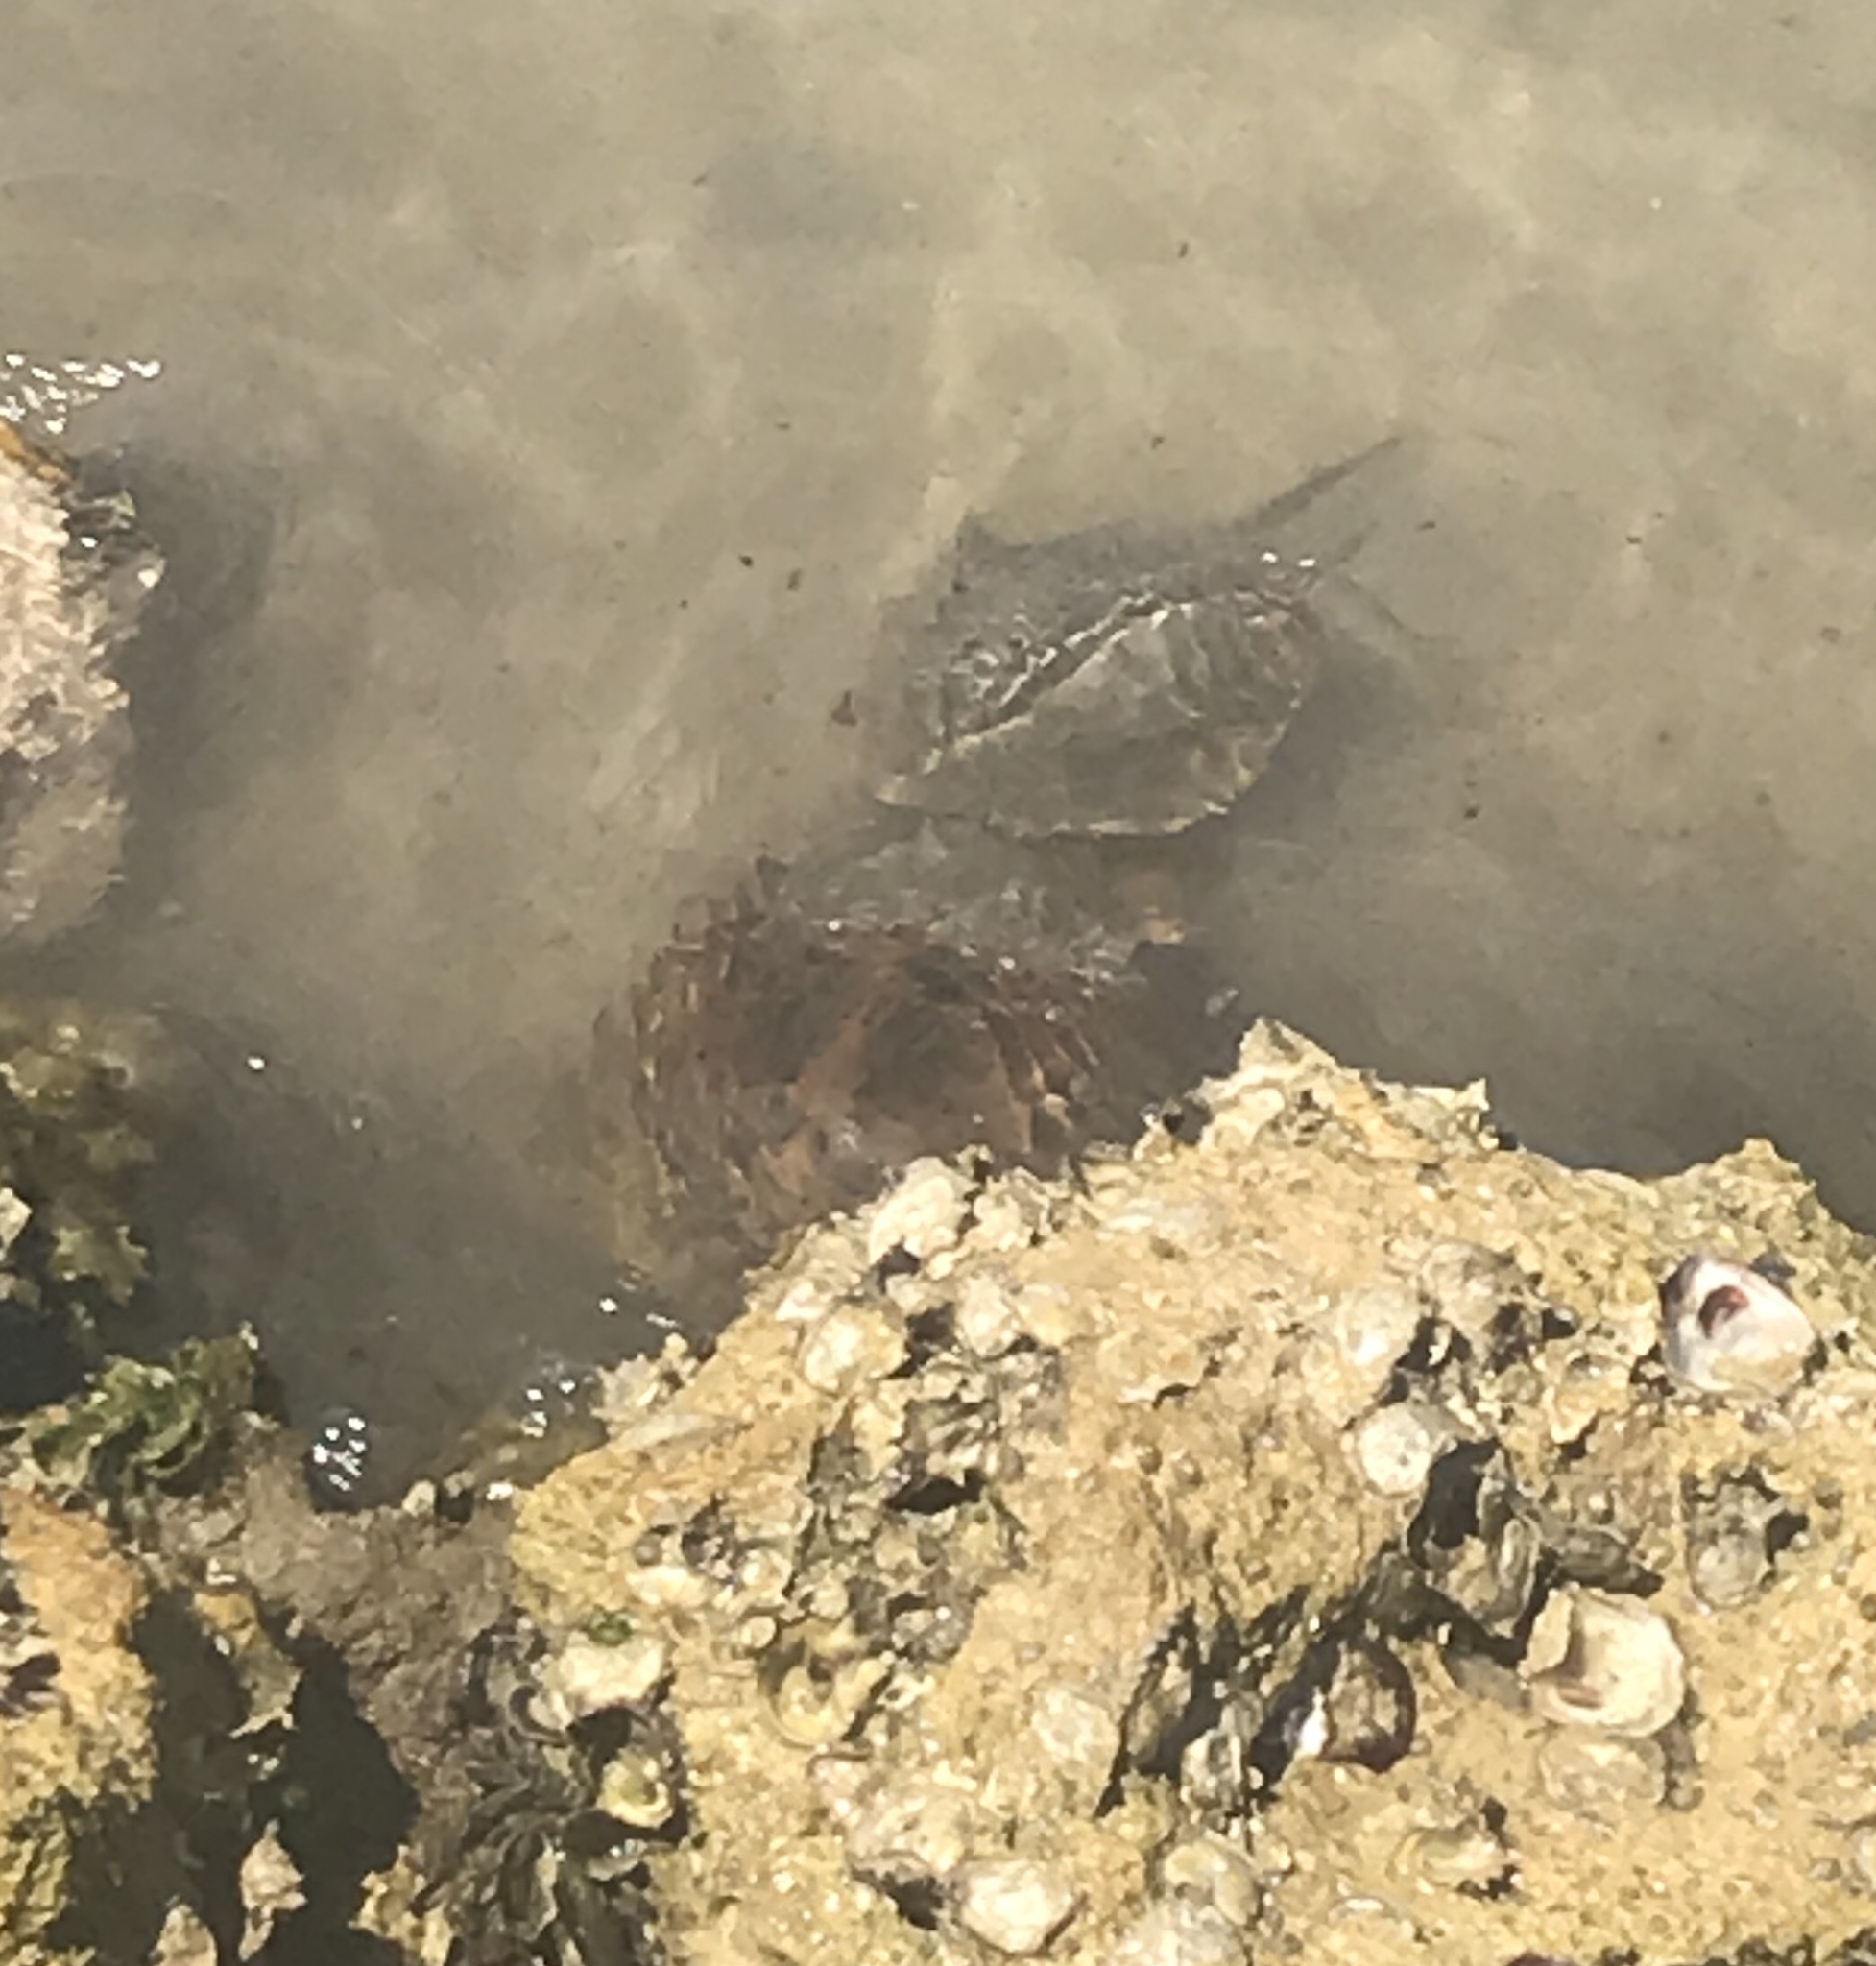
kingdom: Animalia
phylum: Arthropoda
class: Merostomata
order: Xiphosurida
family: Limulidae
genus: Limulus
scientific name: Limulus polyphemus
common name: Horseshoe crab
